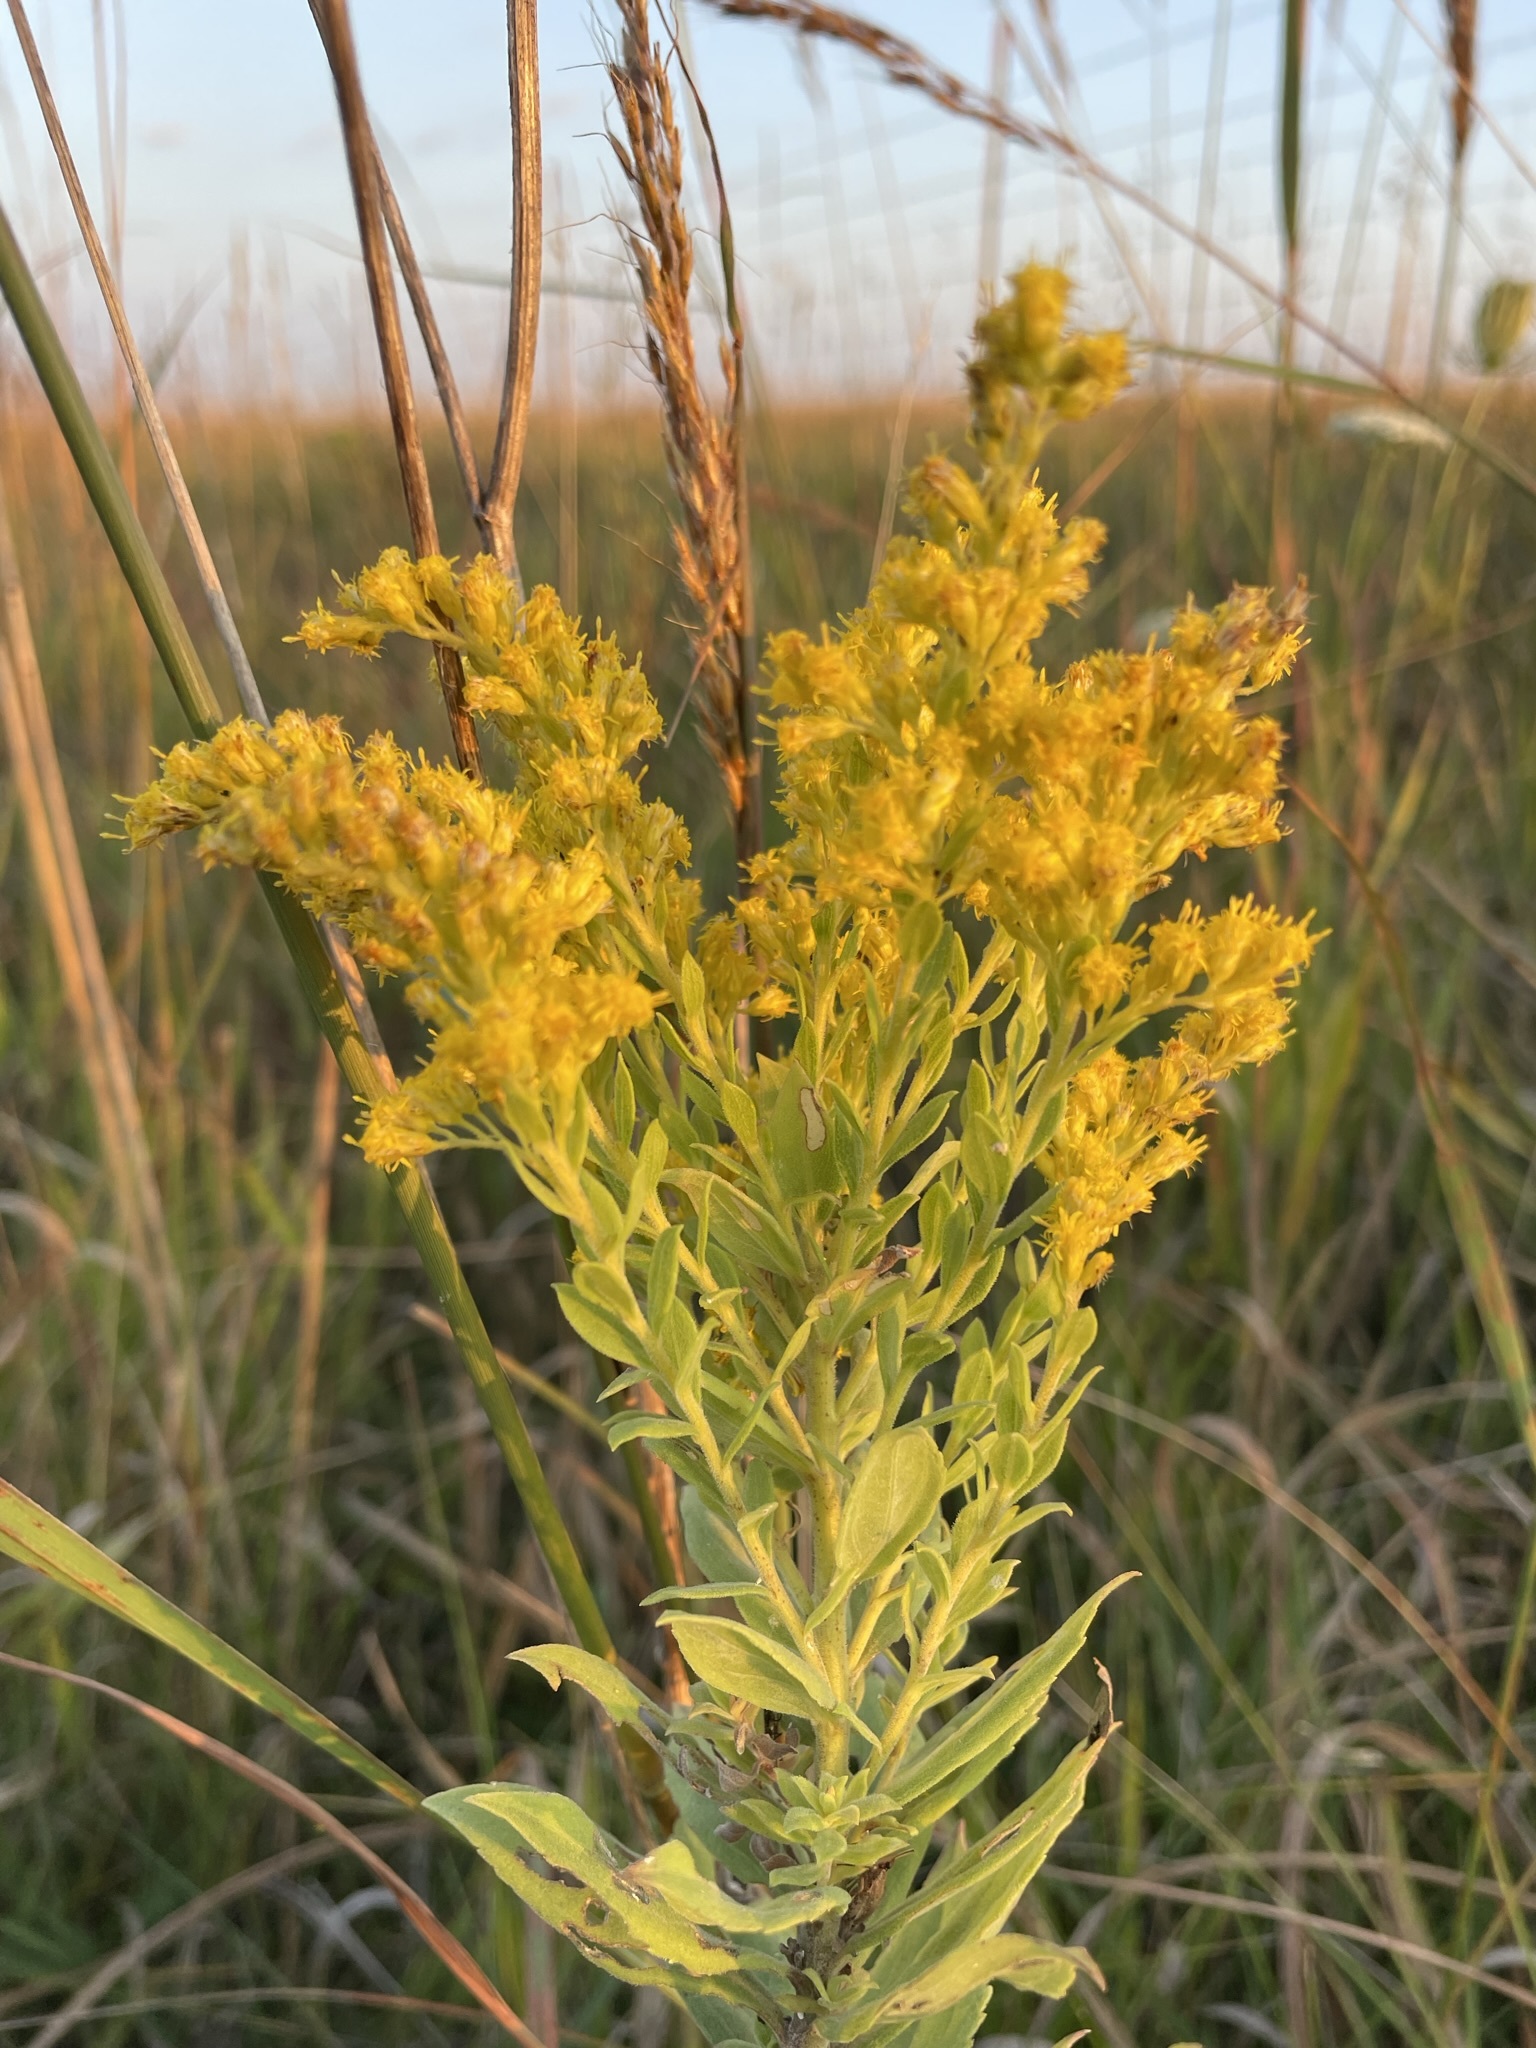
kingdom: Plantae
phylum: Tracheophyta
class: Magnoliopsida
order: Asterales
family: Asteraceae
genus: Solidago
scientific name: Solidago altissima
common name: Late goldenrod
